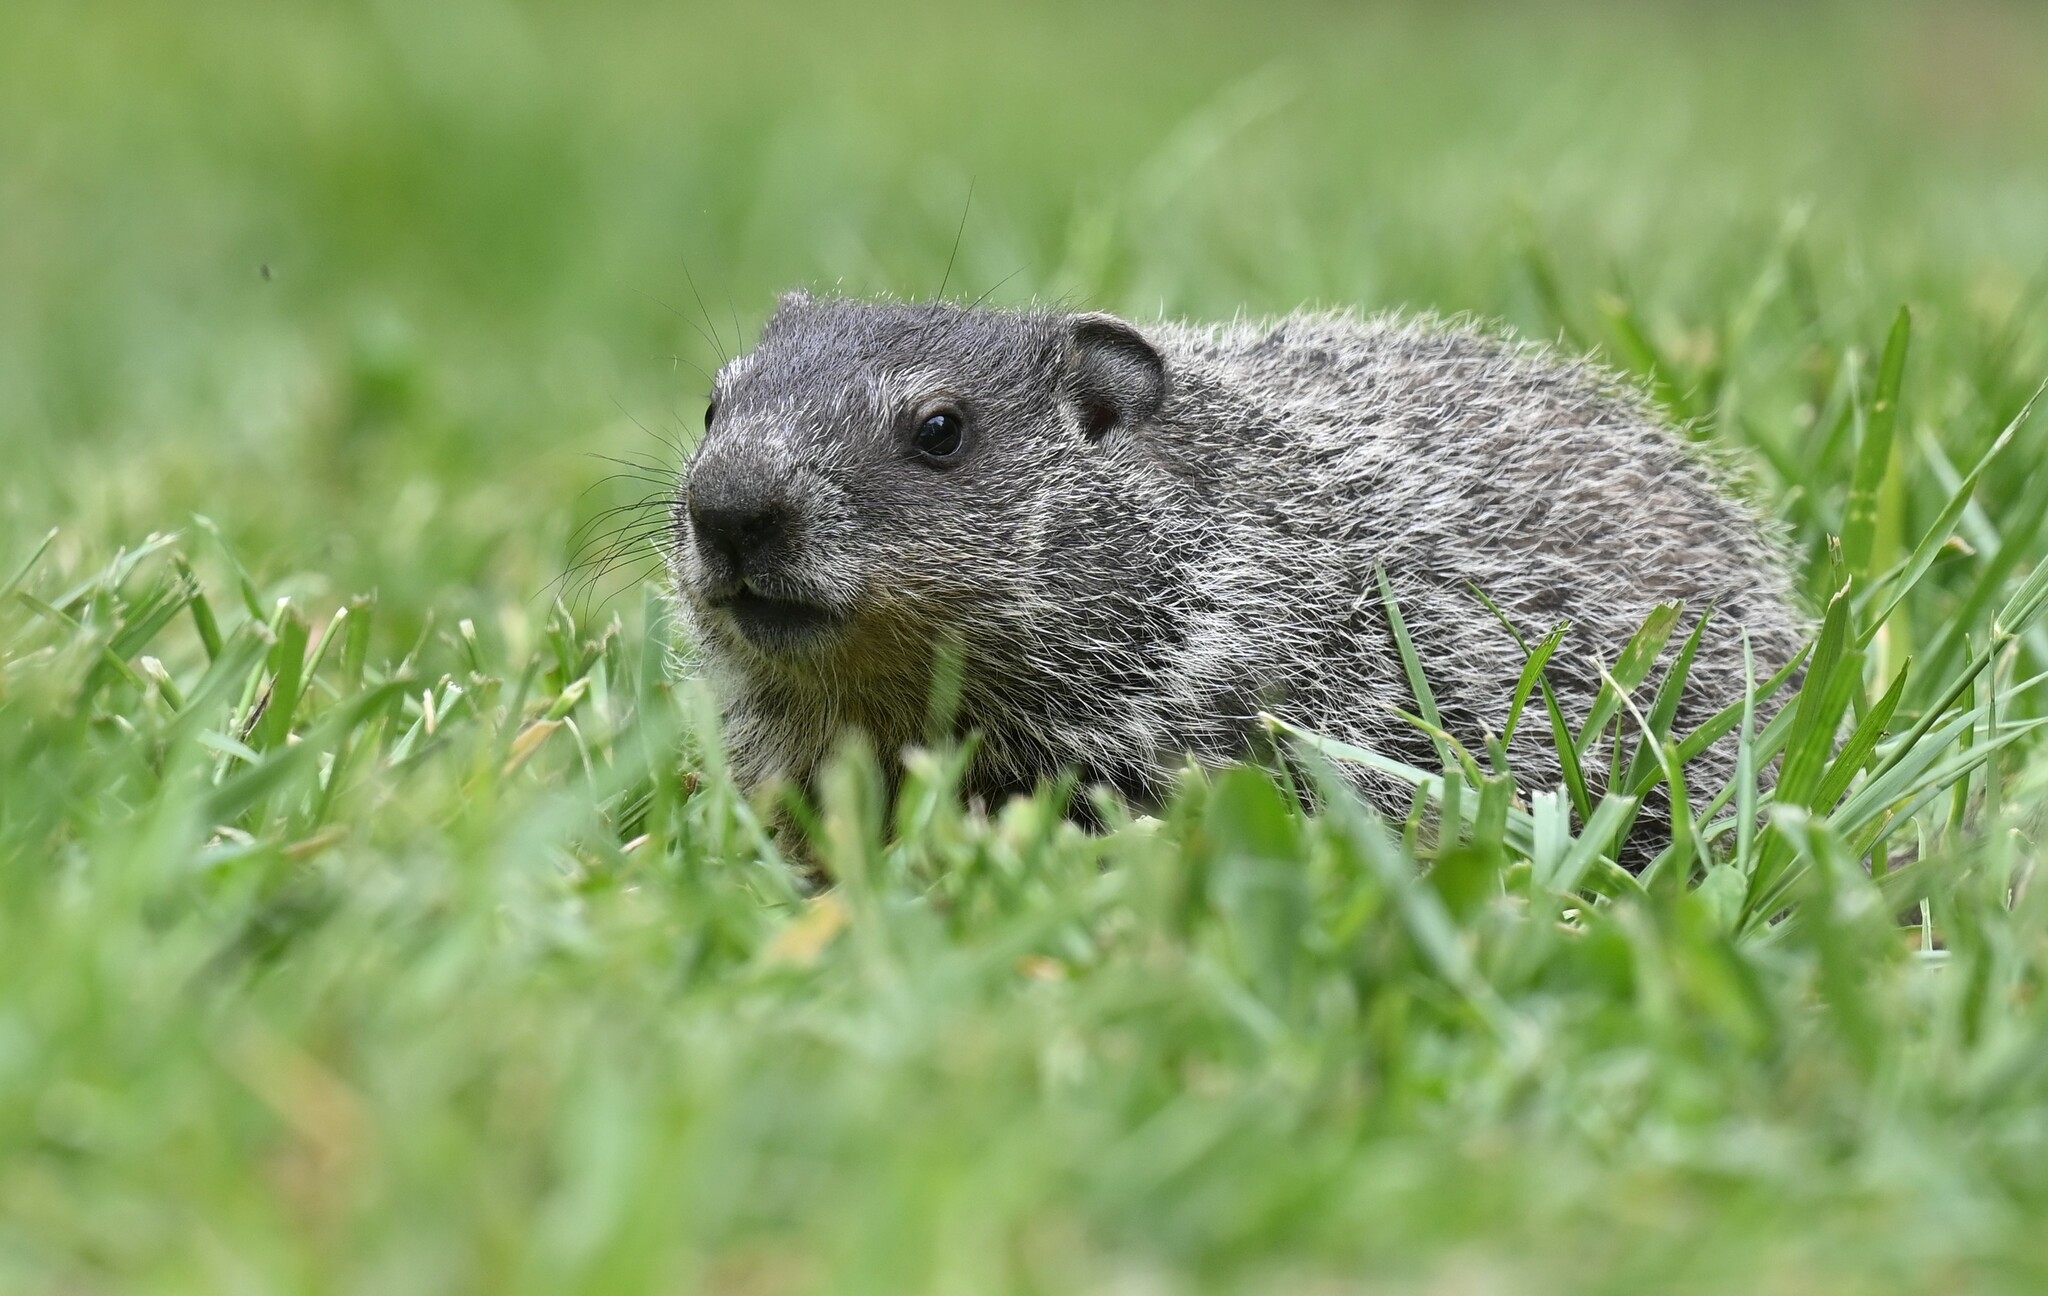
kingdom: Animalia
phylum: Chordata
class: Mammalia
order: Rodentia
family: Sciuridae
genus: Marmota
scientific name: Marmota monax
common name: Groundhog
